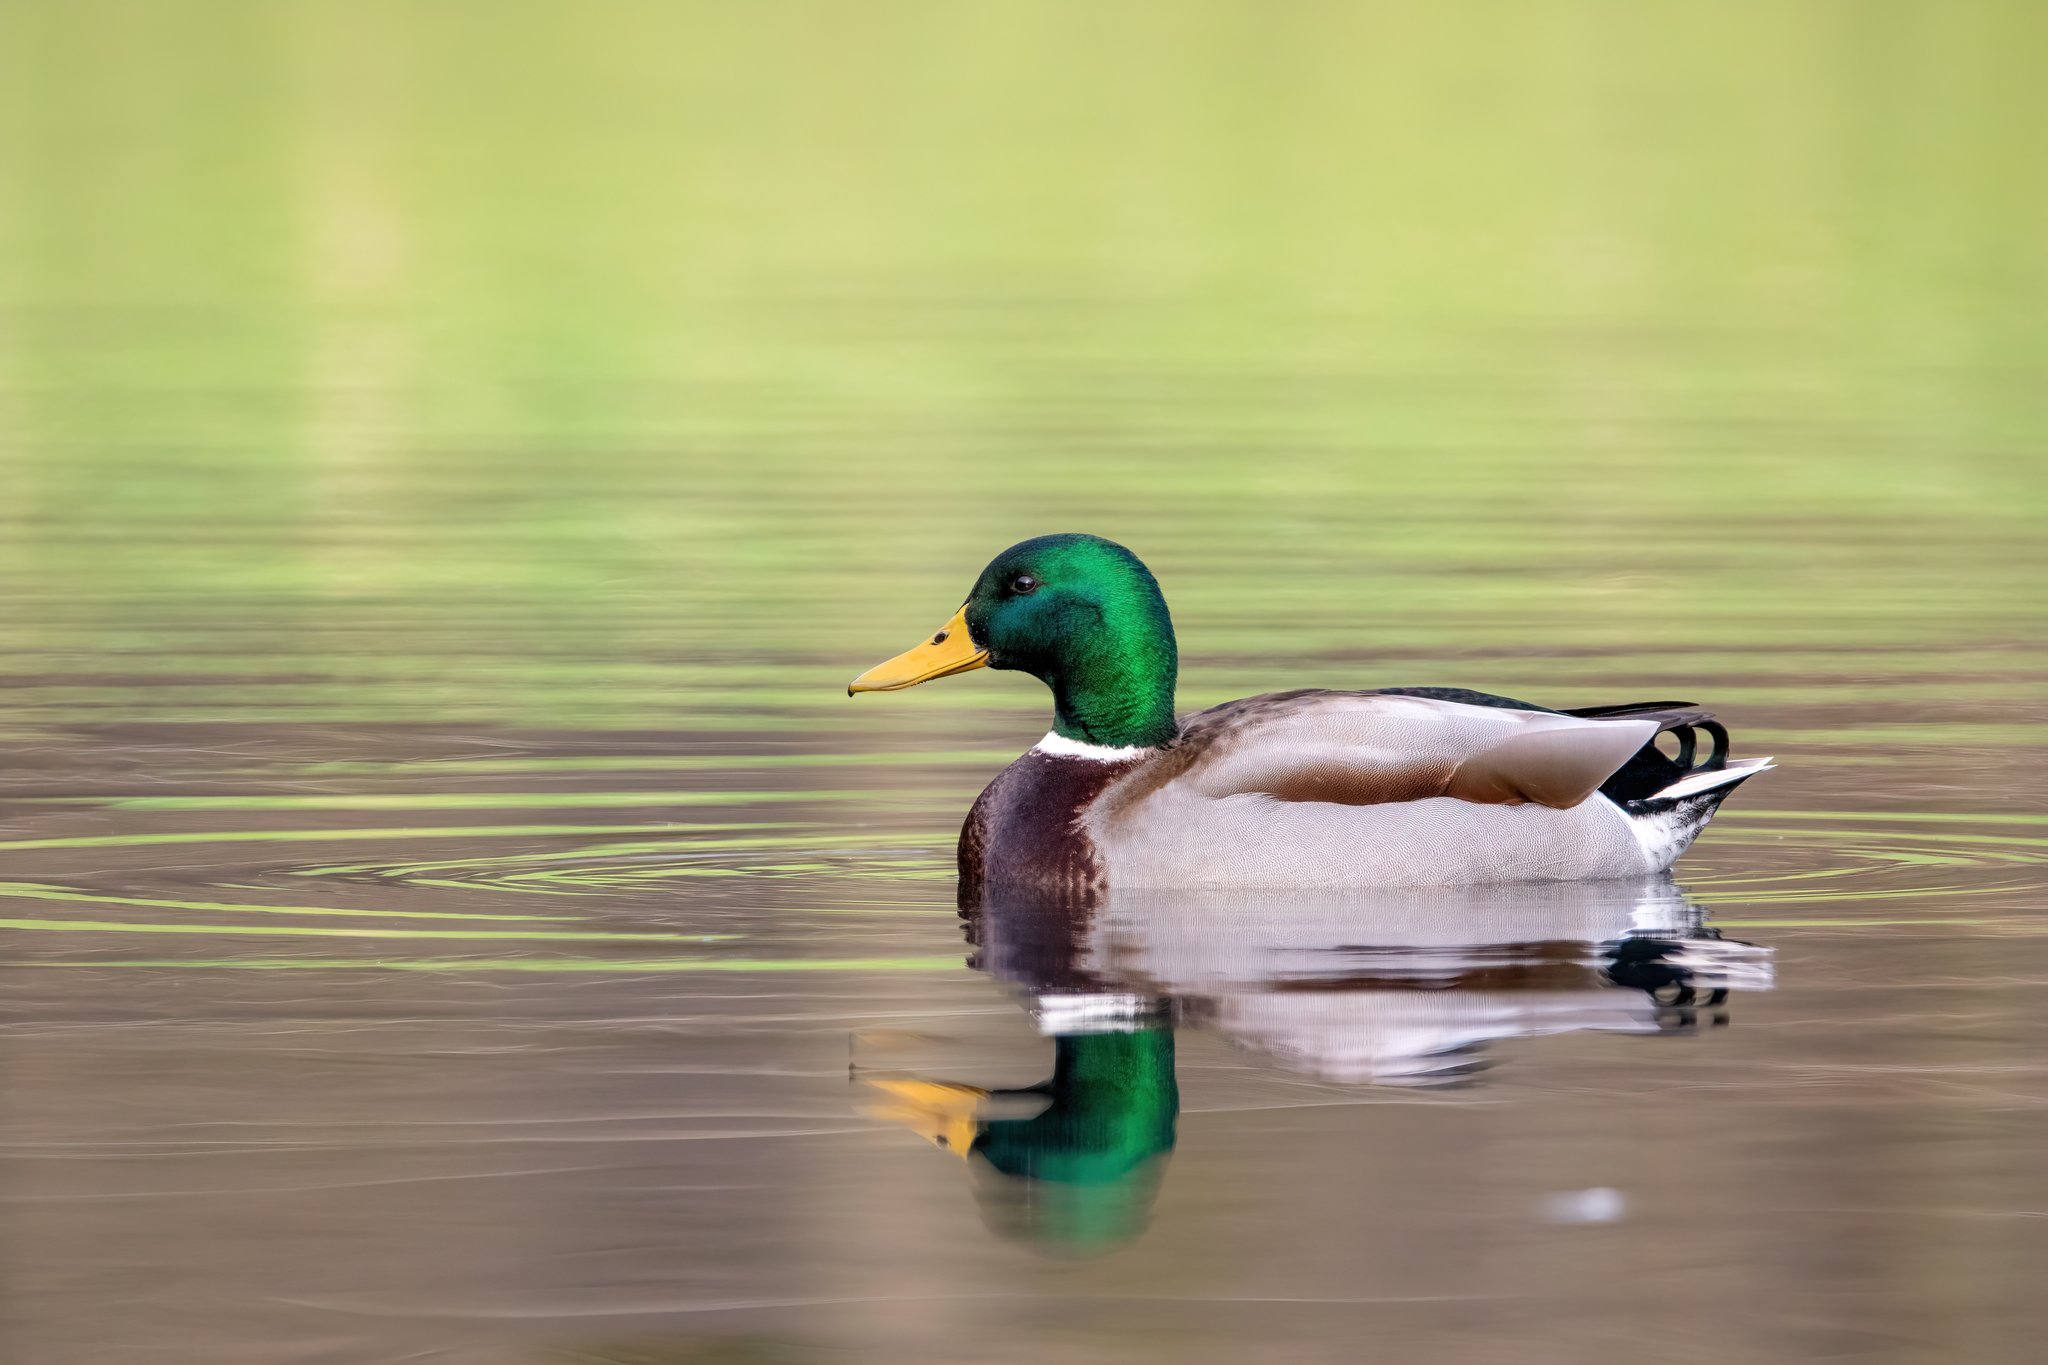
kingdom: Animalia
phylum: Chordata
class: Aves
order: Anseriformes
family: Anatidae
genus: Anas
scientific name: Anas platyrhynchos
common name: Mallard
